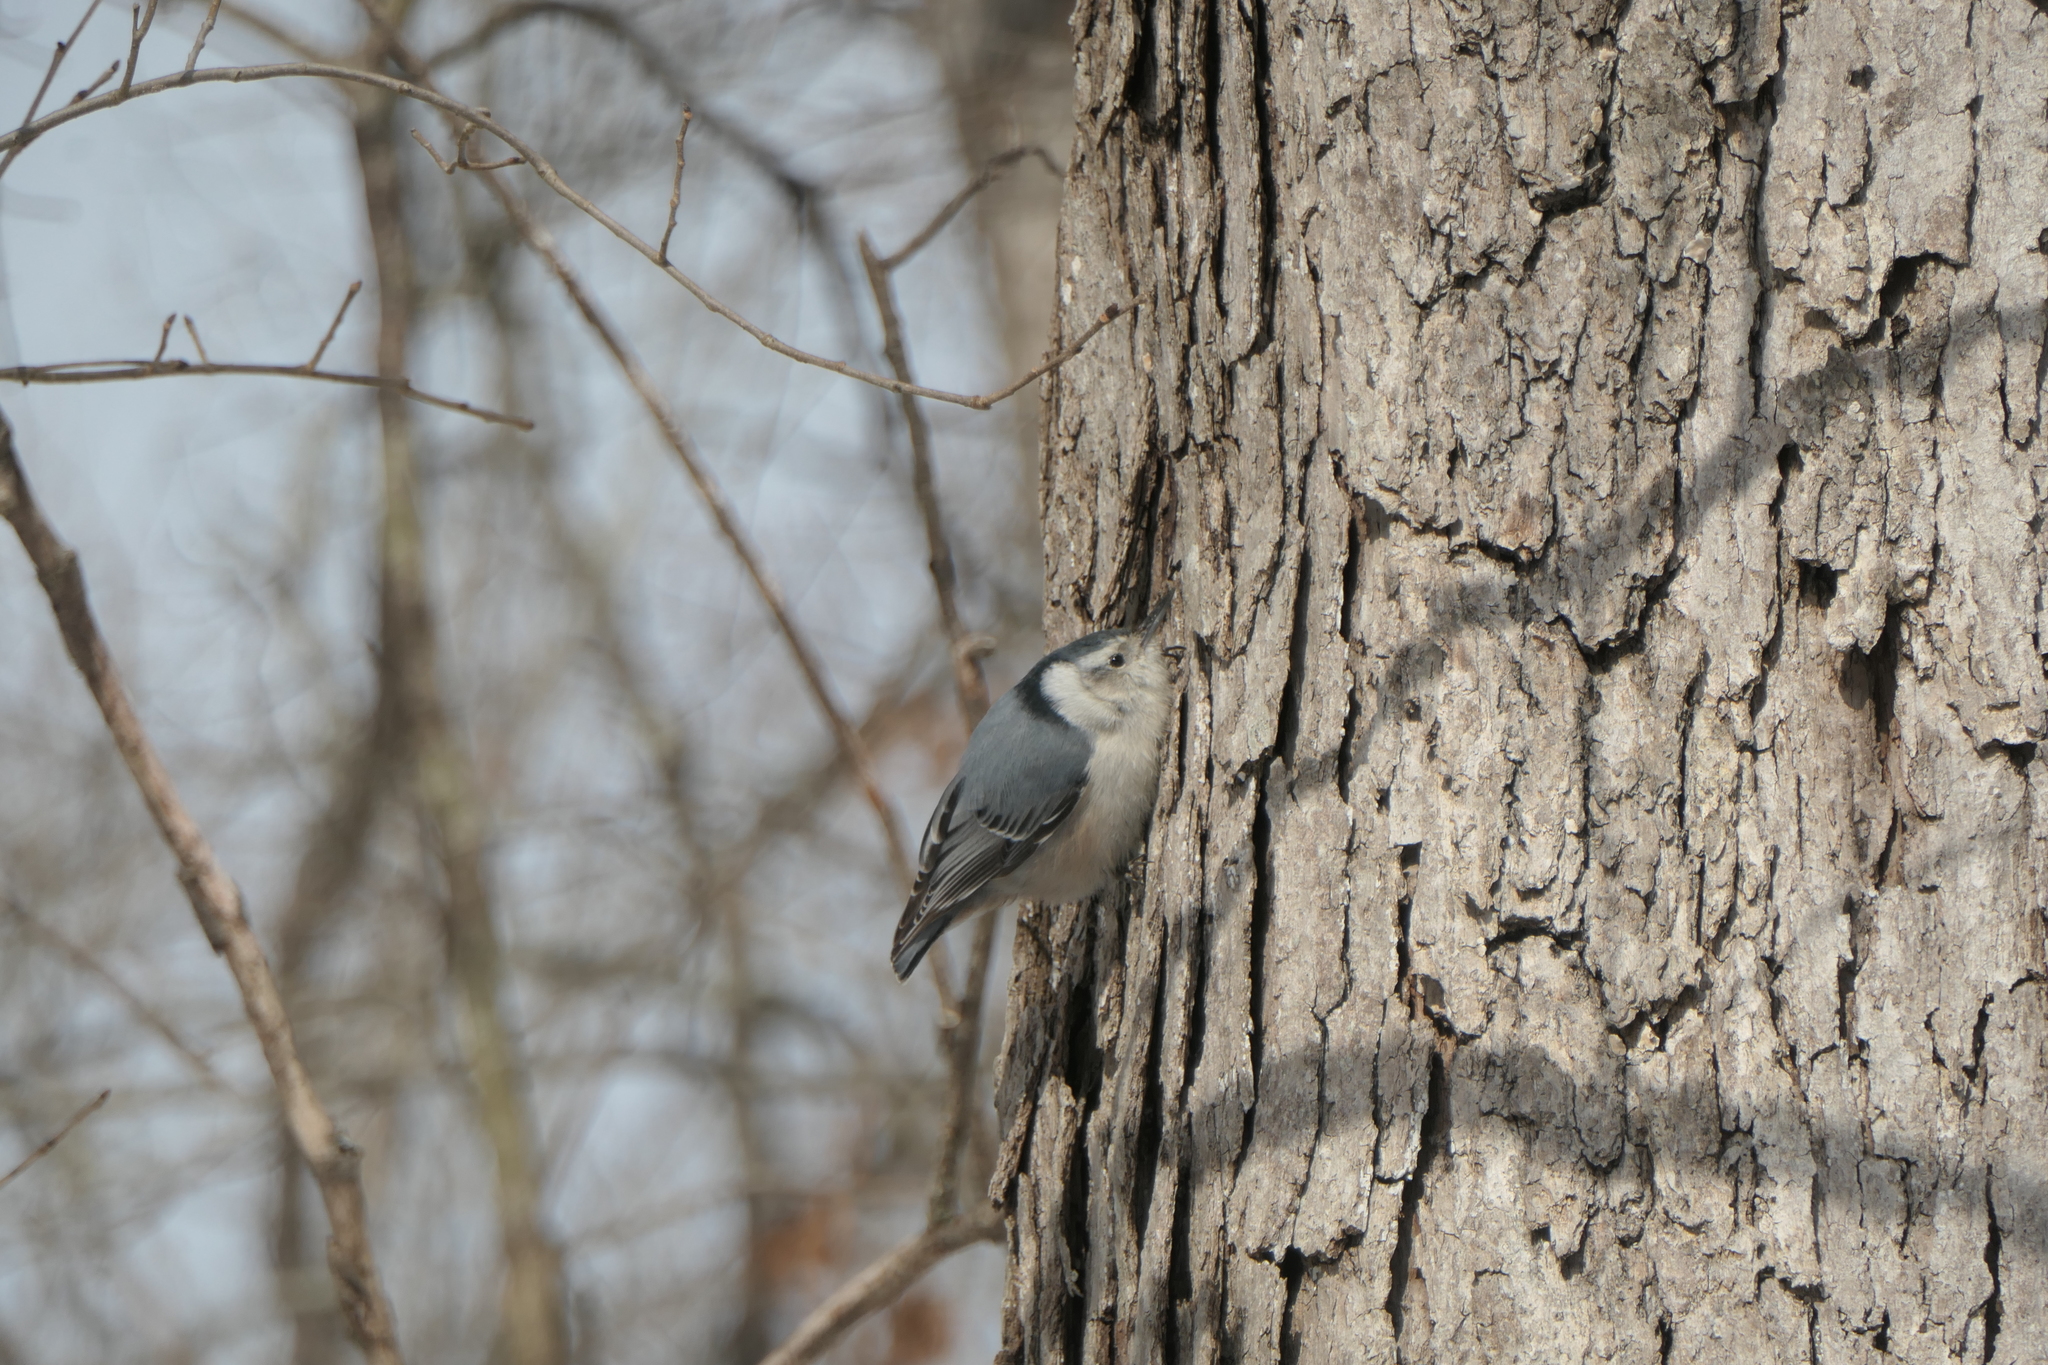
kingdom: Animalia
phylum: Chordata
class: Aves
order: Passeriformes
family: Sittidae
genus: Sitta
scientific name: Sitta carolinensis
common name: White-breasted nuthatch
